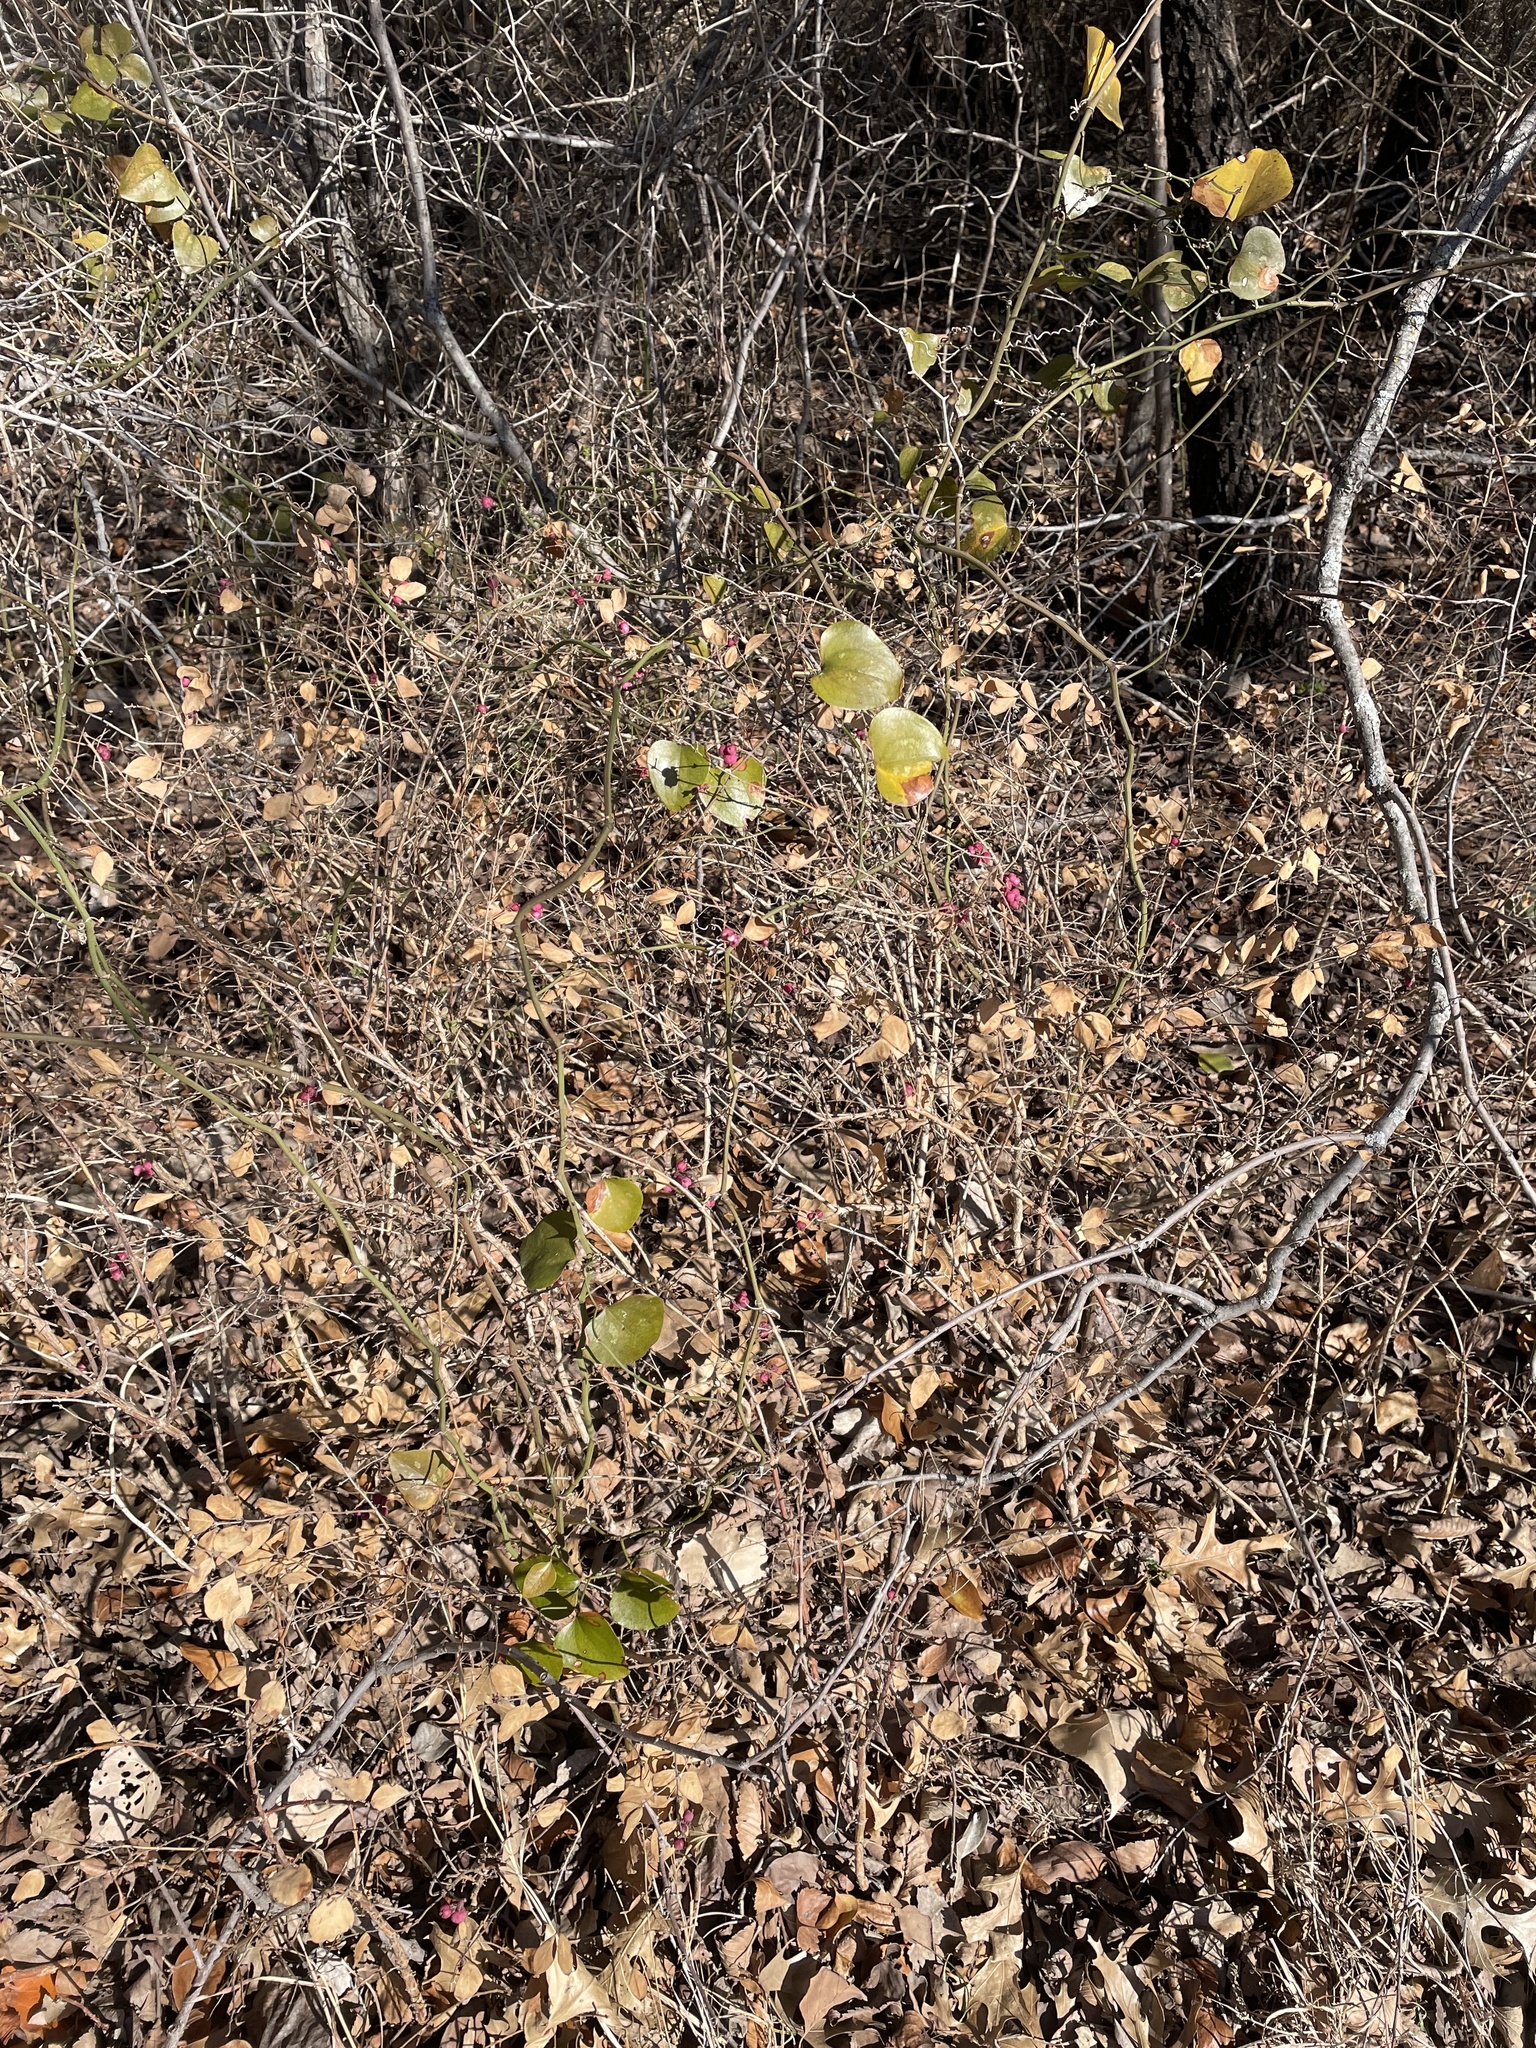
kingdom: Plantae
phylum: Tracheophyta
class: Magnoliopsida
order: Dipsacales
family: Caprifoliaceae
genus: Symphoricarpos
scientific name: Symphoricarpos orbiculatus
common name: Coralberry
